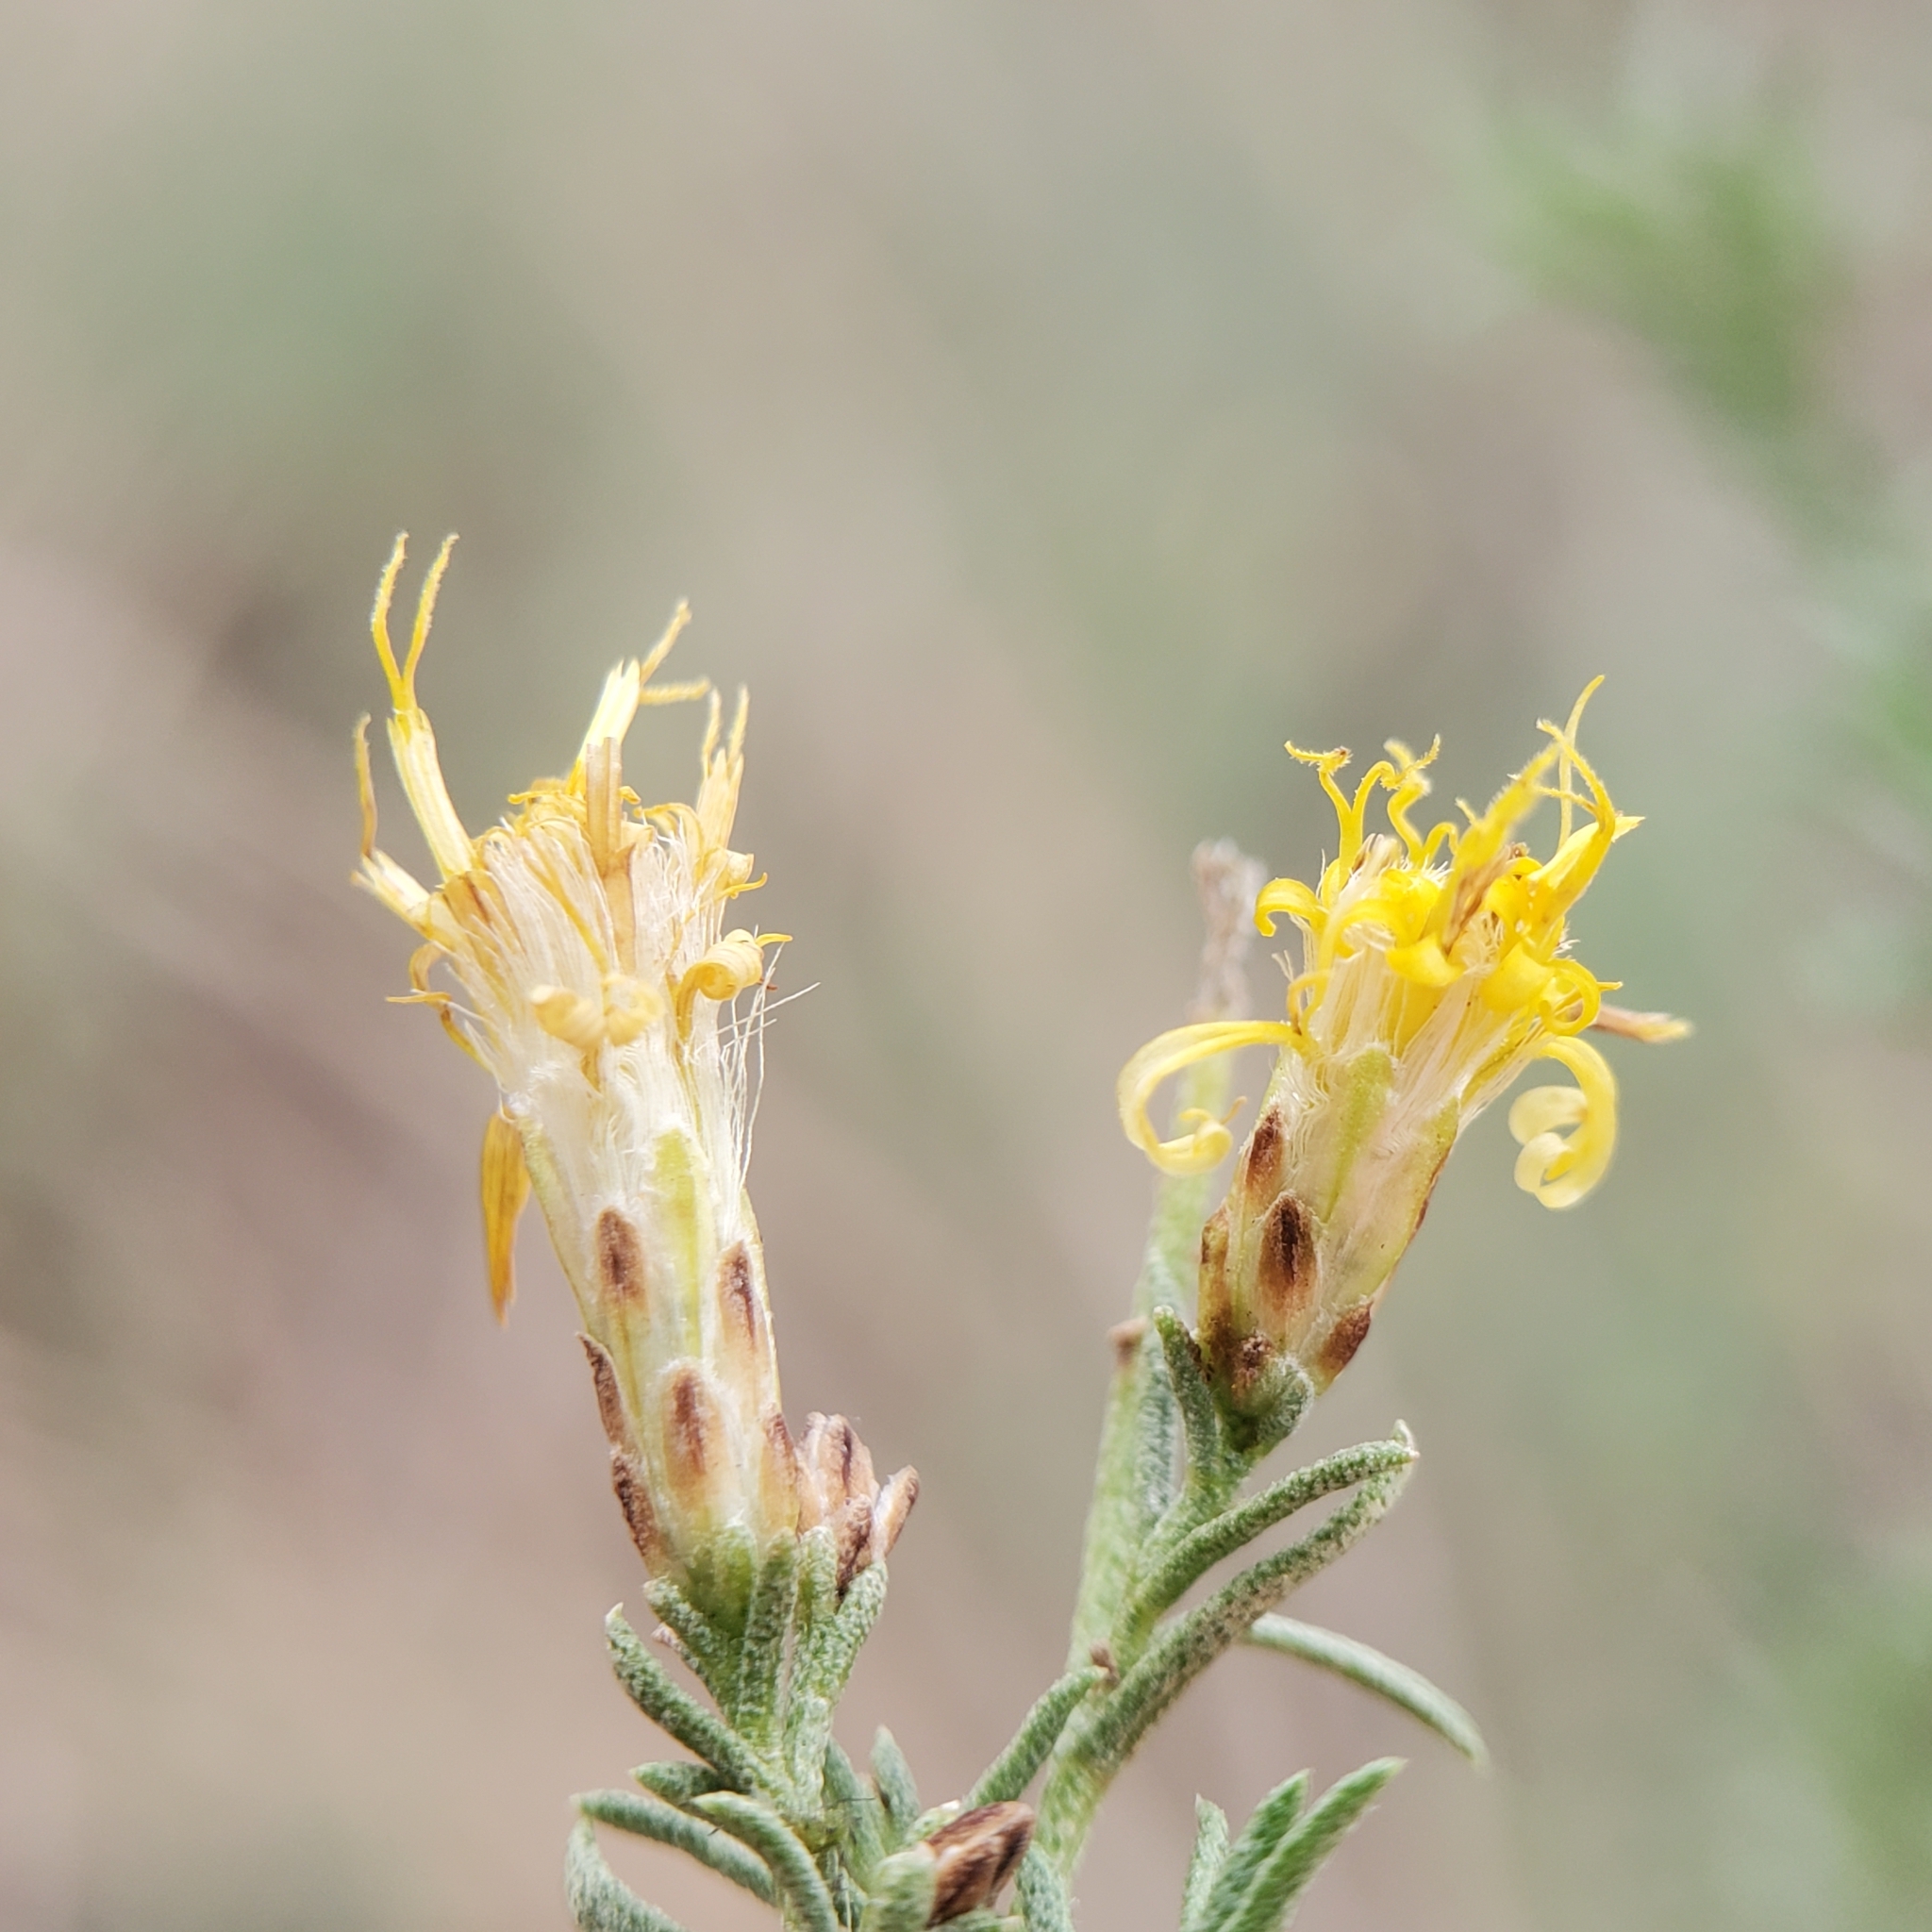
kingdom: Plantae
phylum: Tracheophyta
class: Magnoliopsida
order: Asterales
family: Asteraceae
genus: Ericameria
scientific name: Ericameria palmeri
